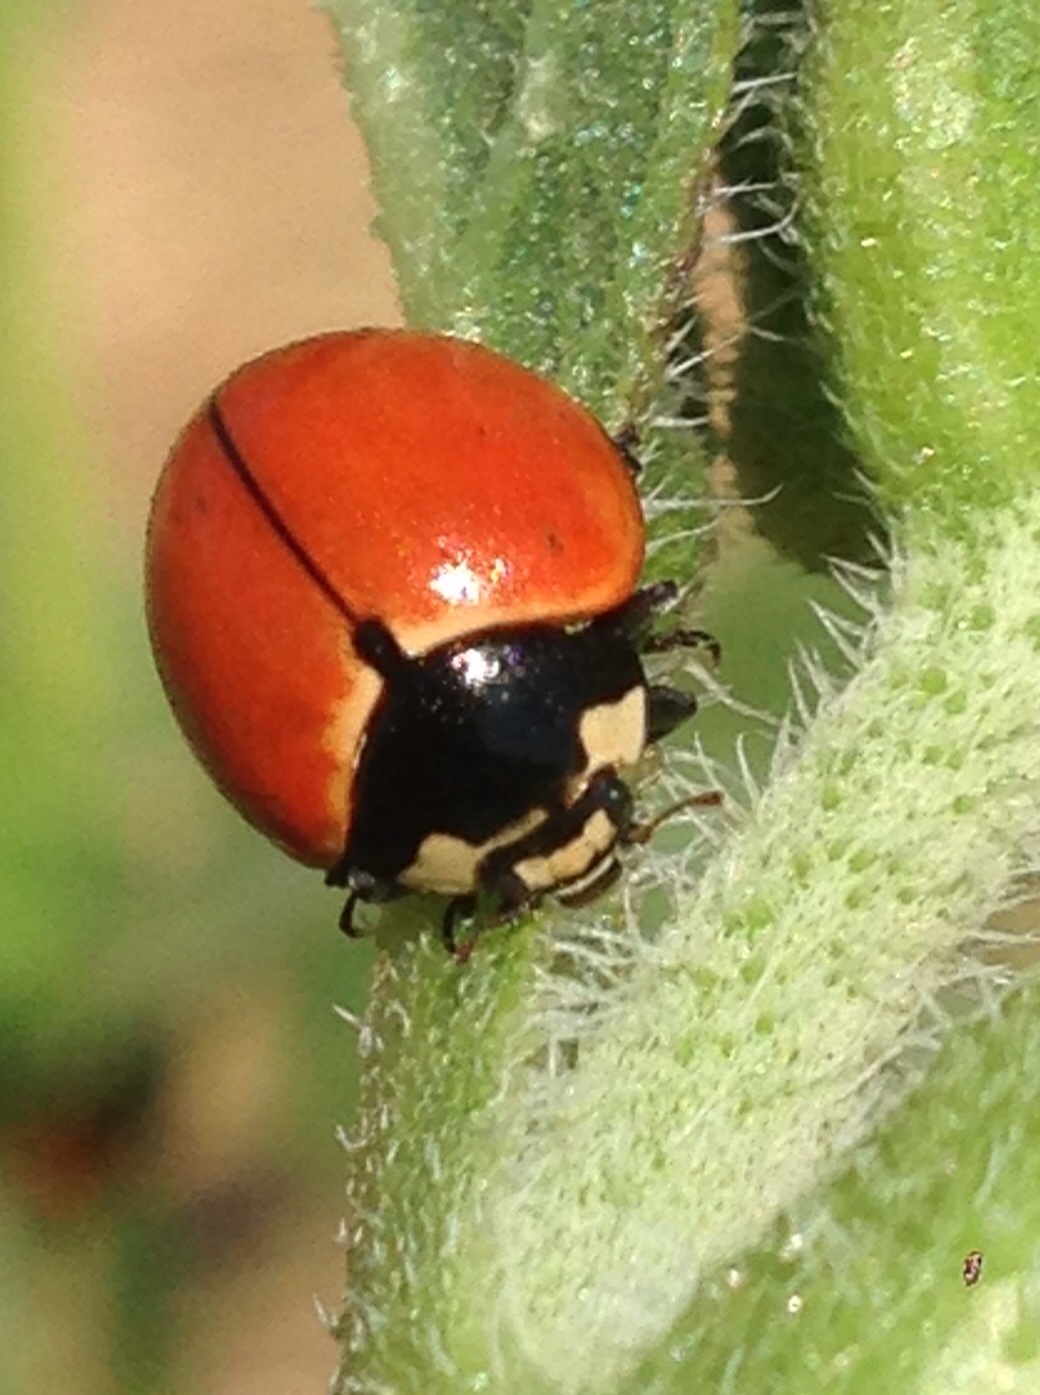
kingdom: Animalia
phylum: Arthropoda
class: Insecta
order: Coleoptera
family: Coccinellidae
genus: Coccinella
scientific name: Coccinella novemnotata
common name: Nine-spotted lady beetle
